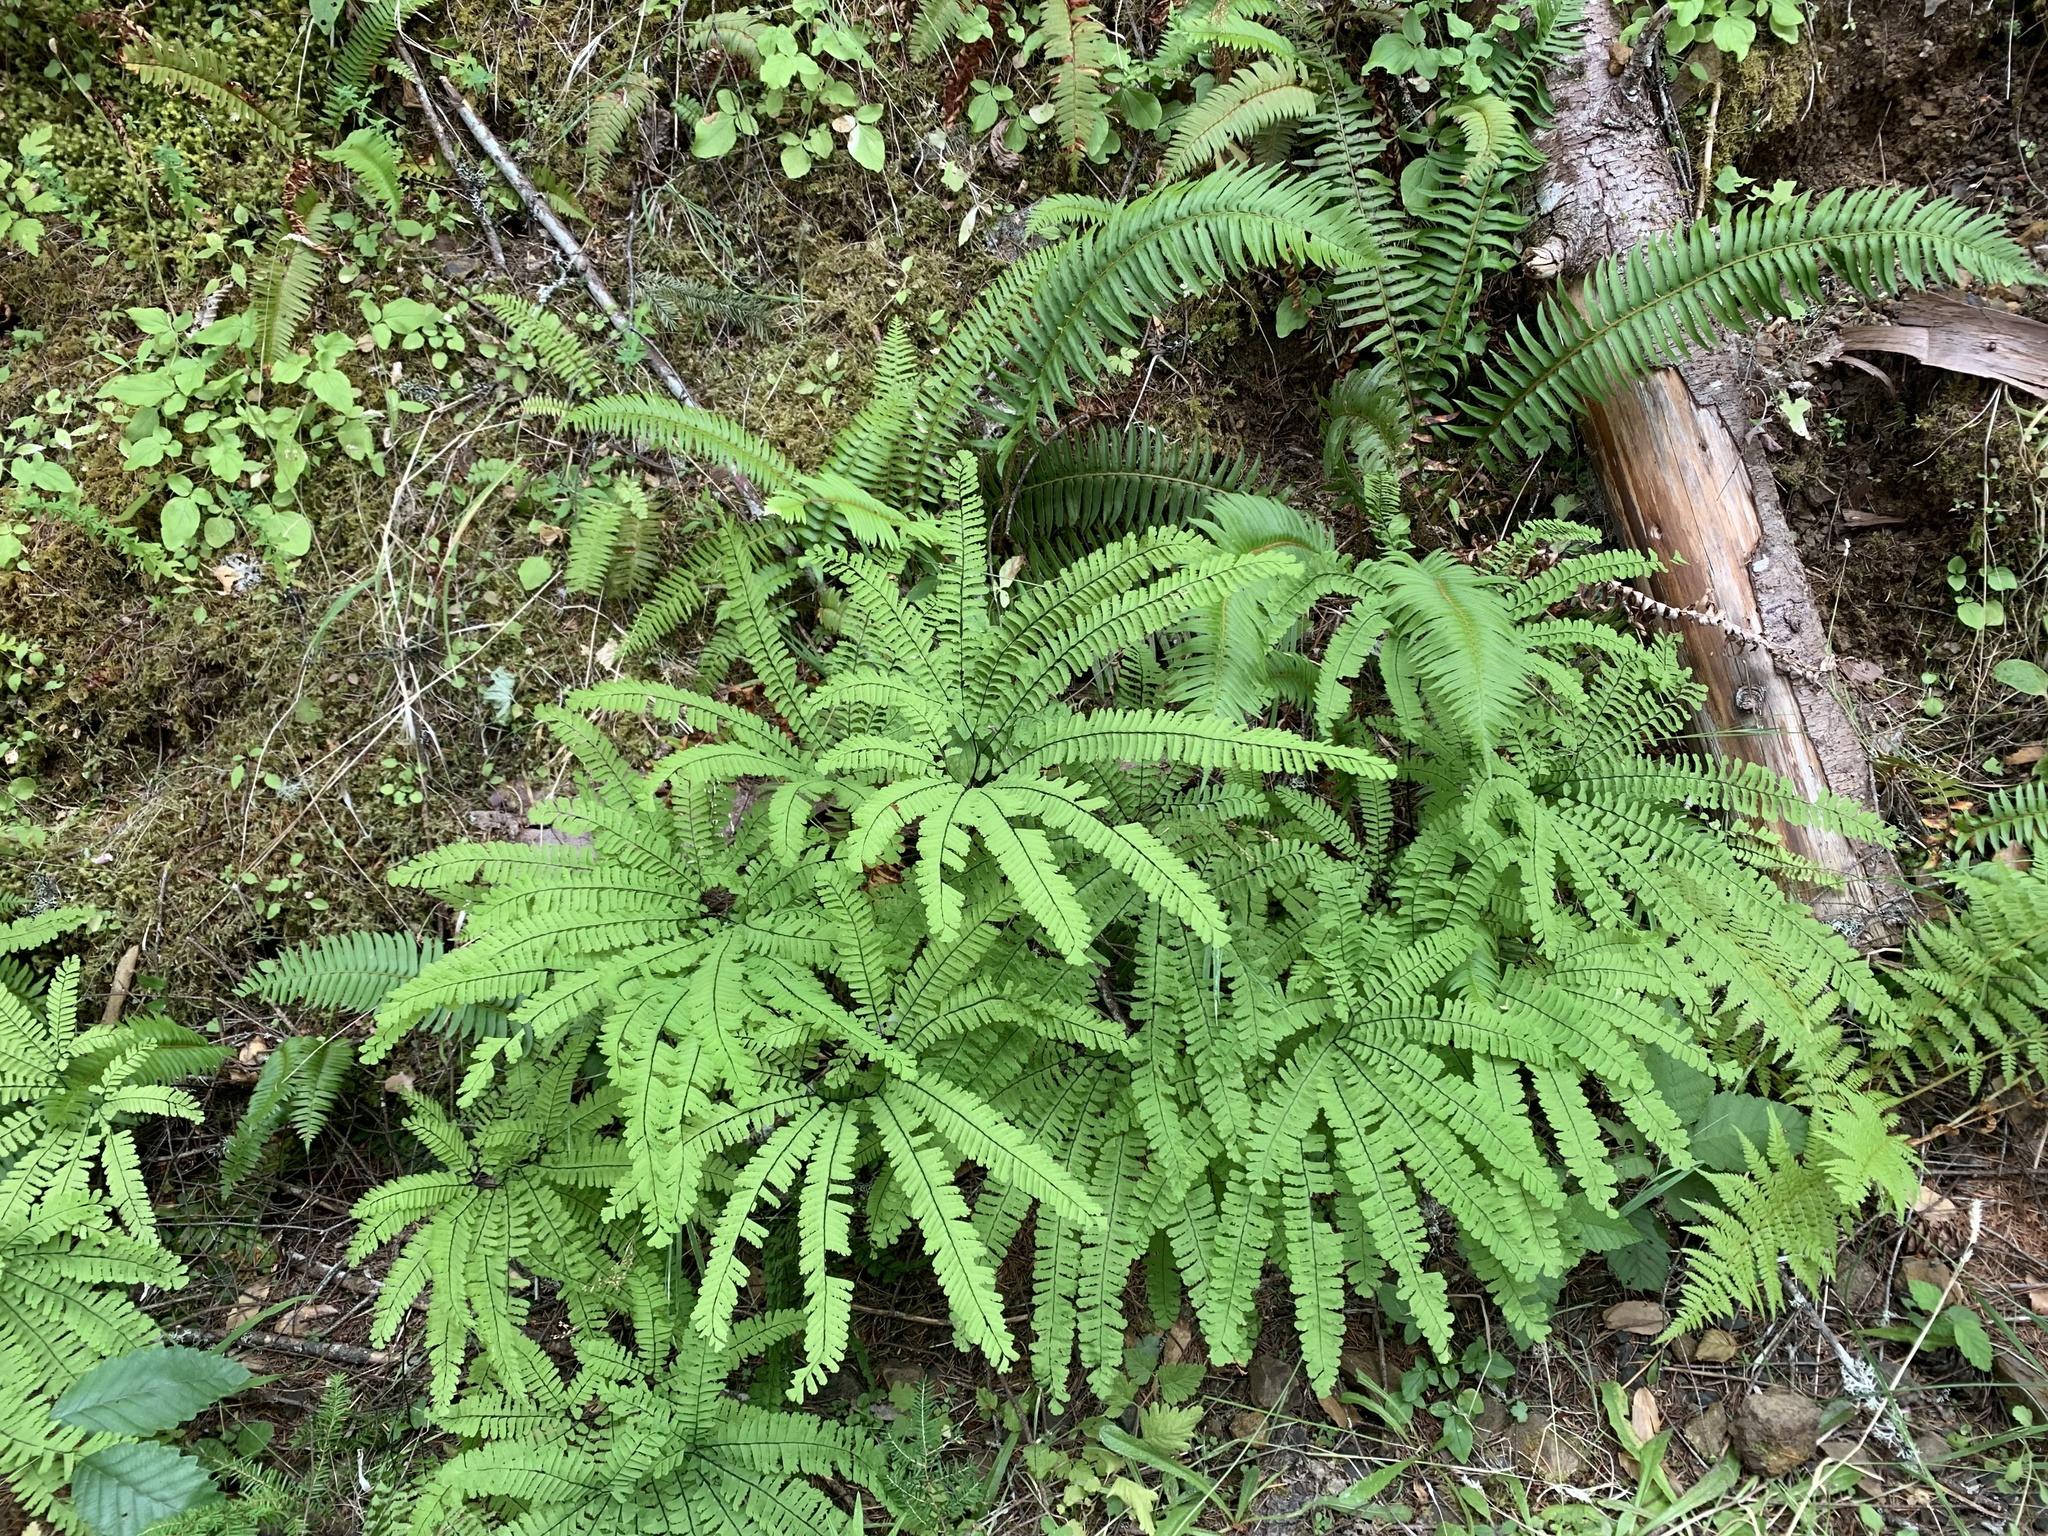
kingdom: Plantae
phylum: Tracheophyta
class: Polypodiopsida
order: Polypodiales
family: Pteridaceae
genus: Adiantum
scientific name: Adiantum aleuticum
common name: Aleutian maidenhair fern
